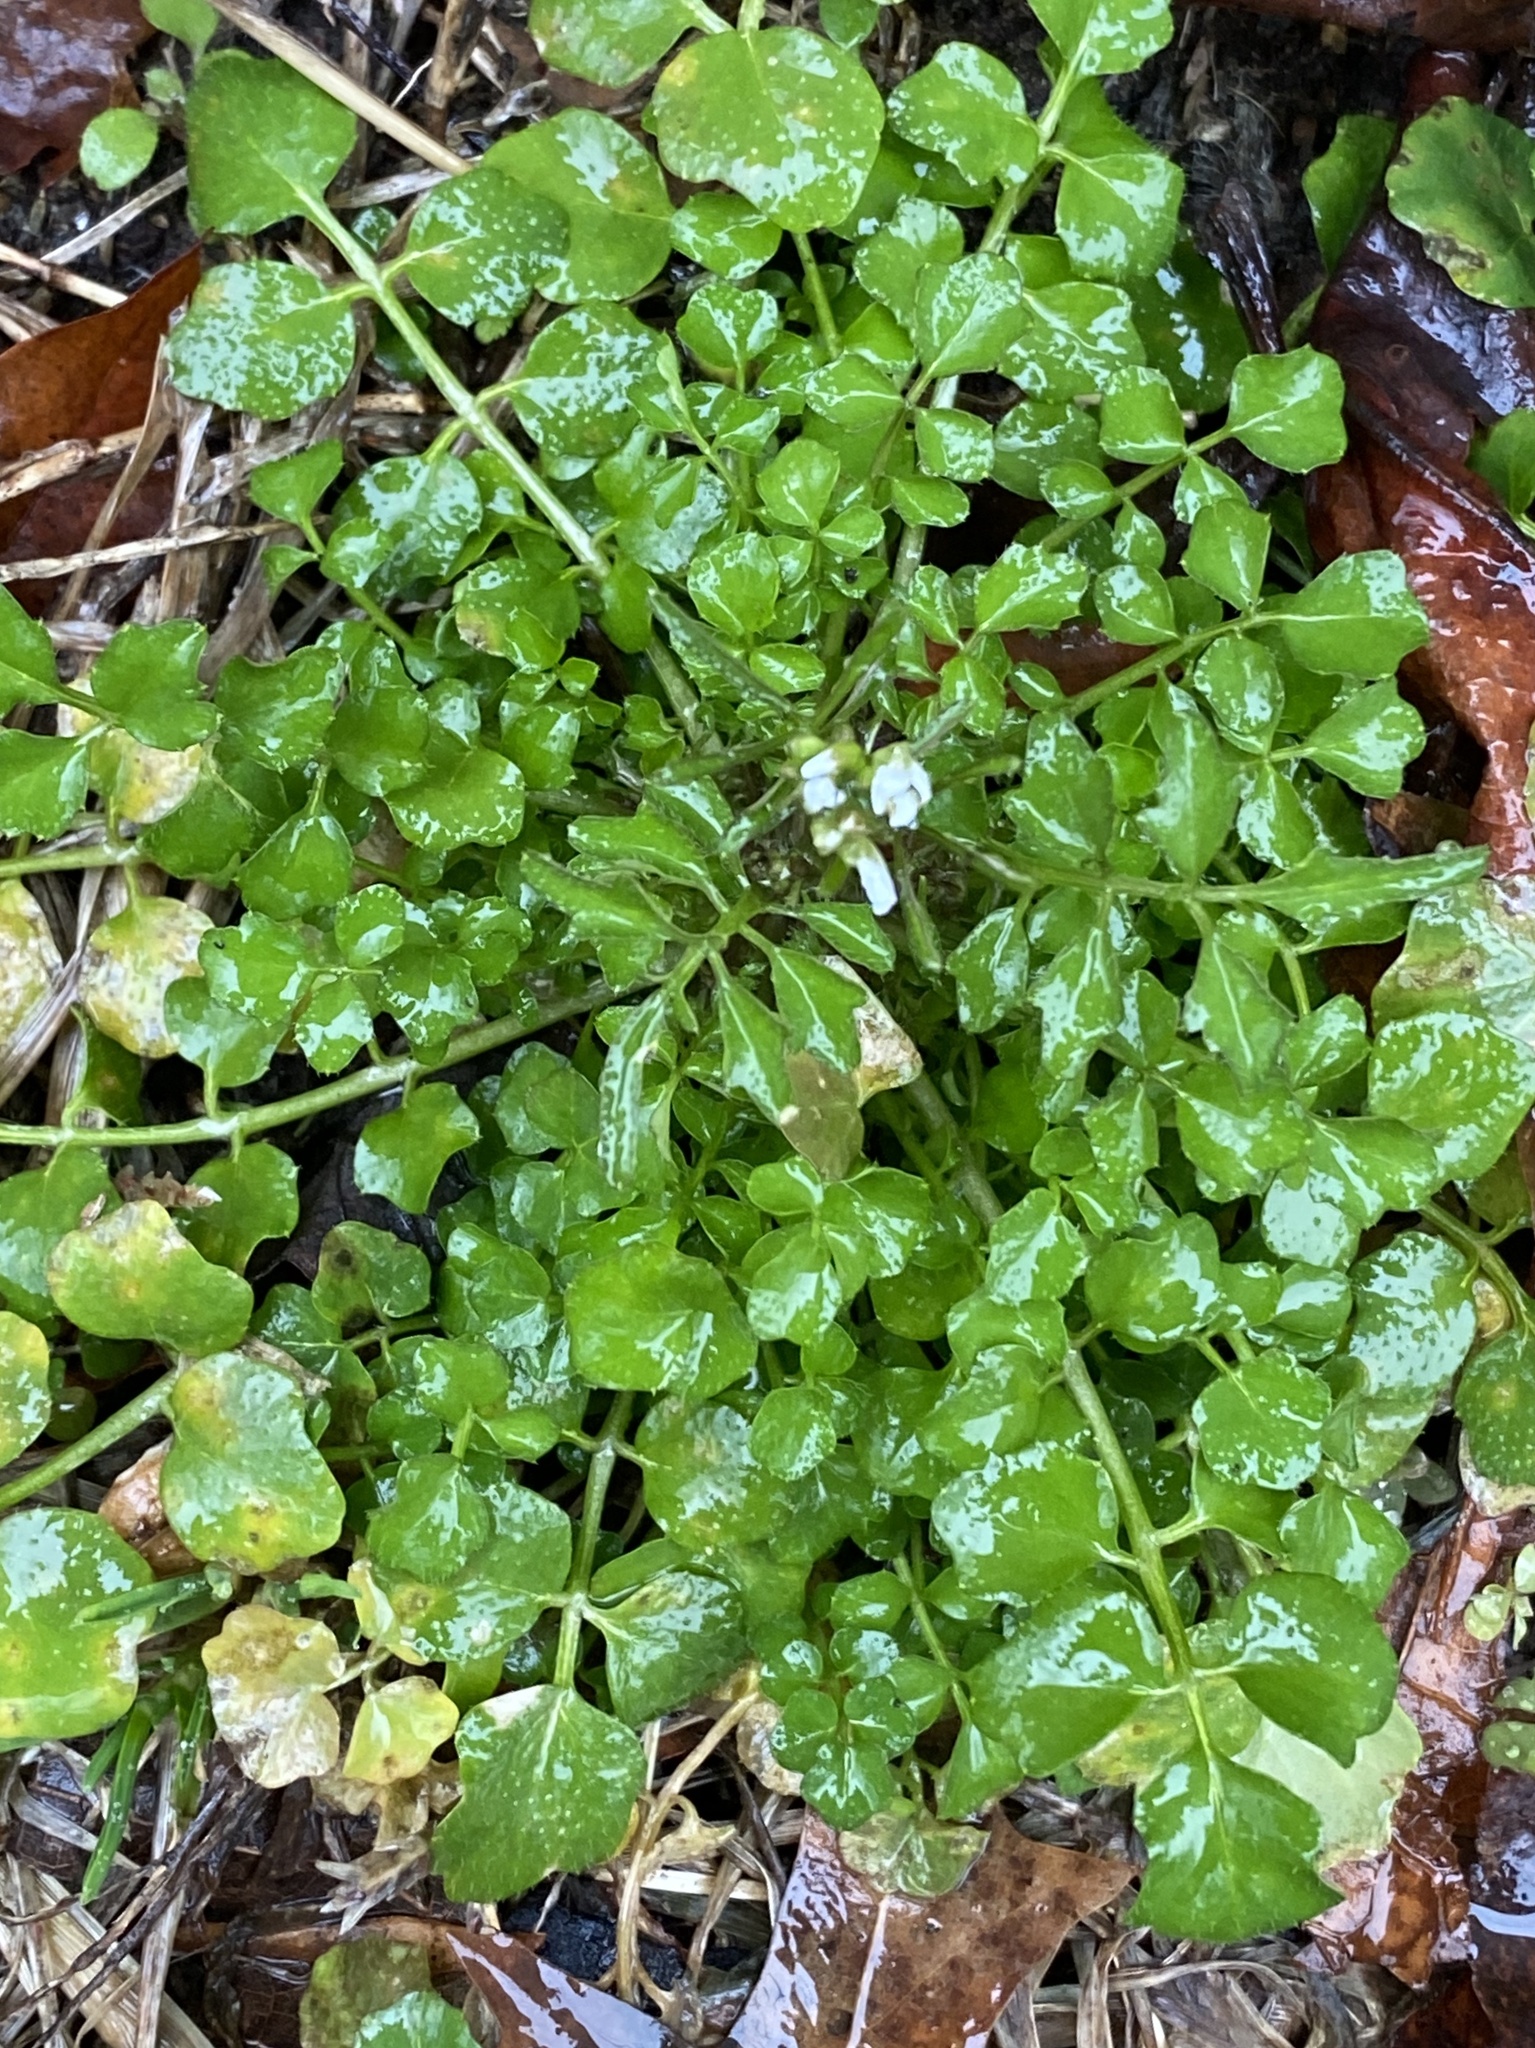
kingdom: Plantae
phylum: Tracheophyta
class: Magnoliopsida
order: Brassicales
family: Brassicaceae
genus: Cardamine
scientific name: Cardamine hirsuta
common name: Hairy bittercress
